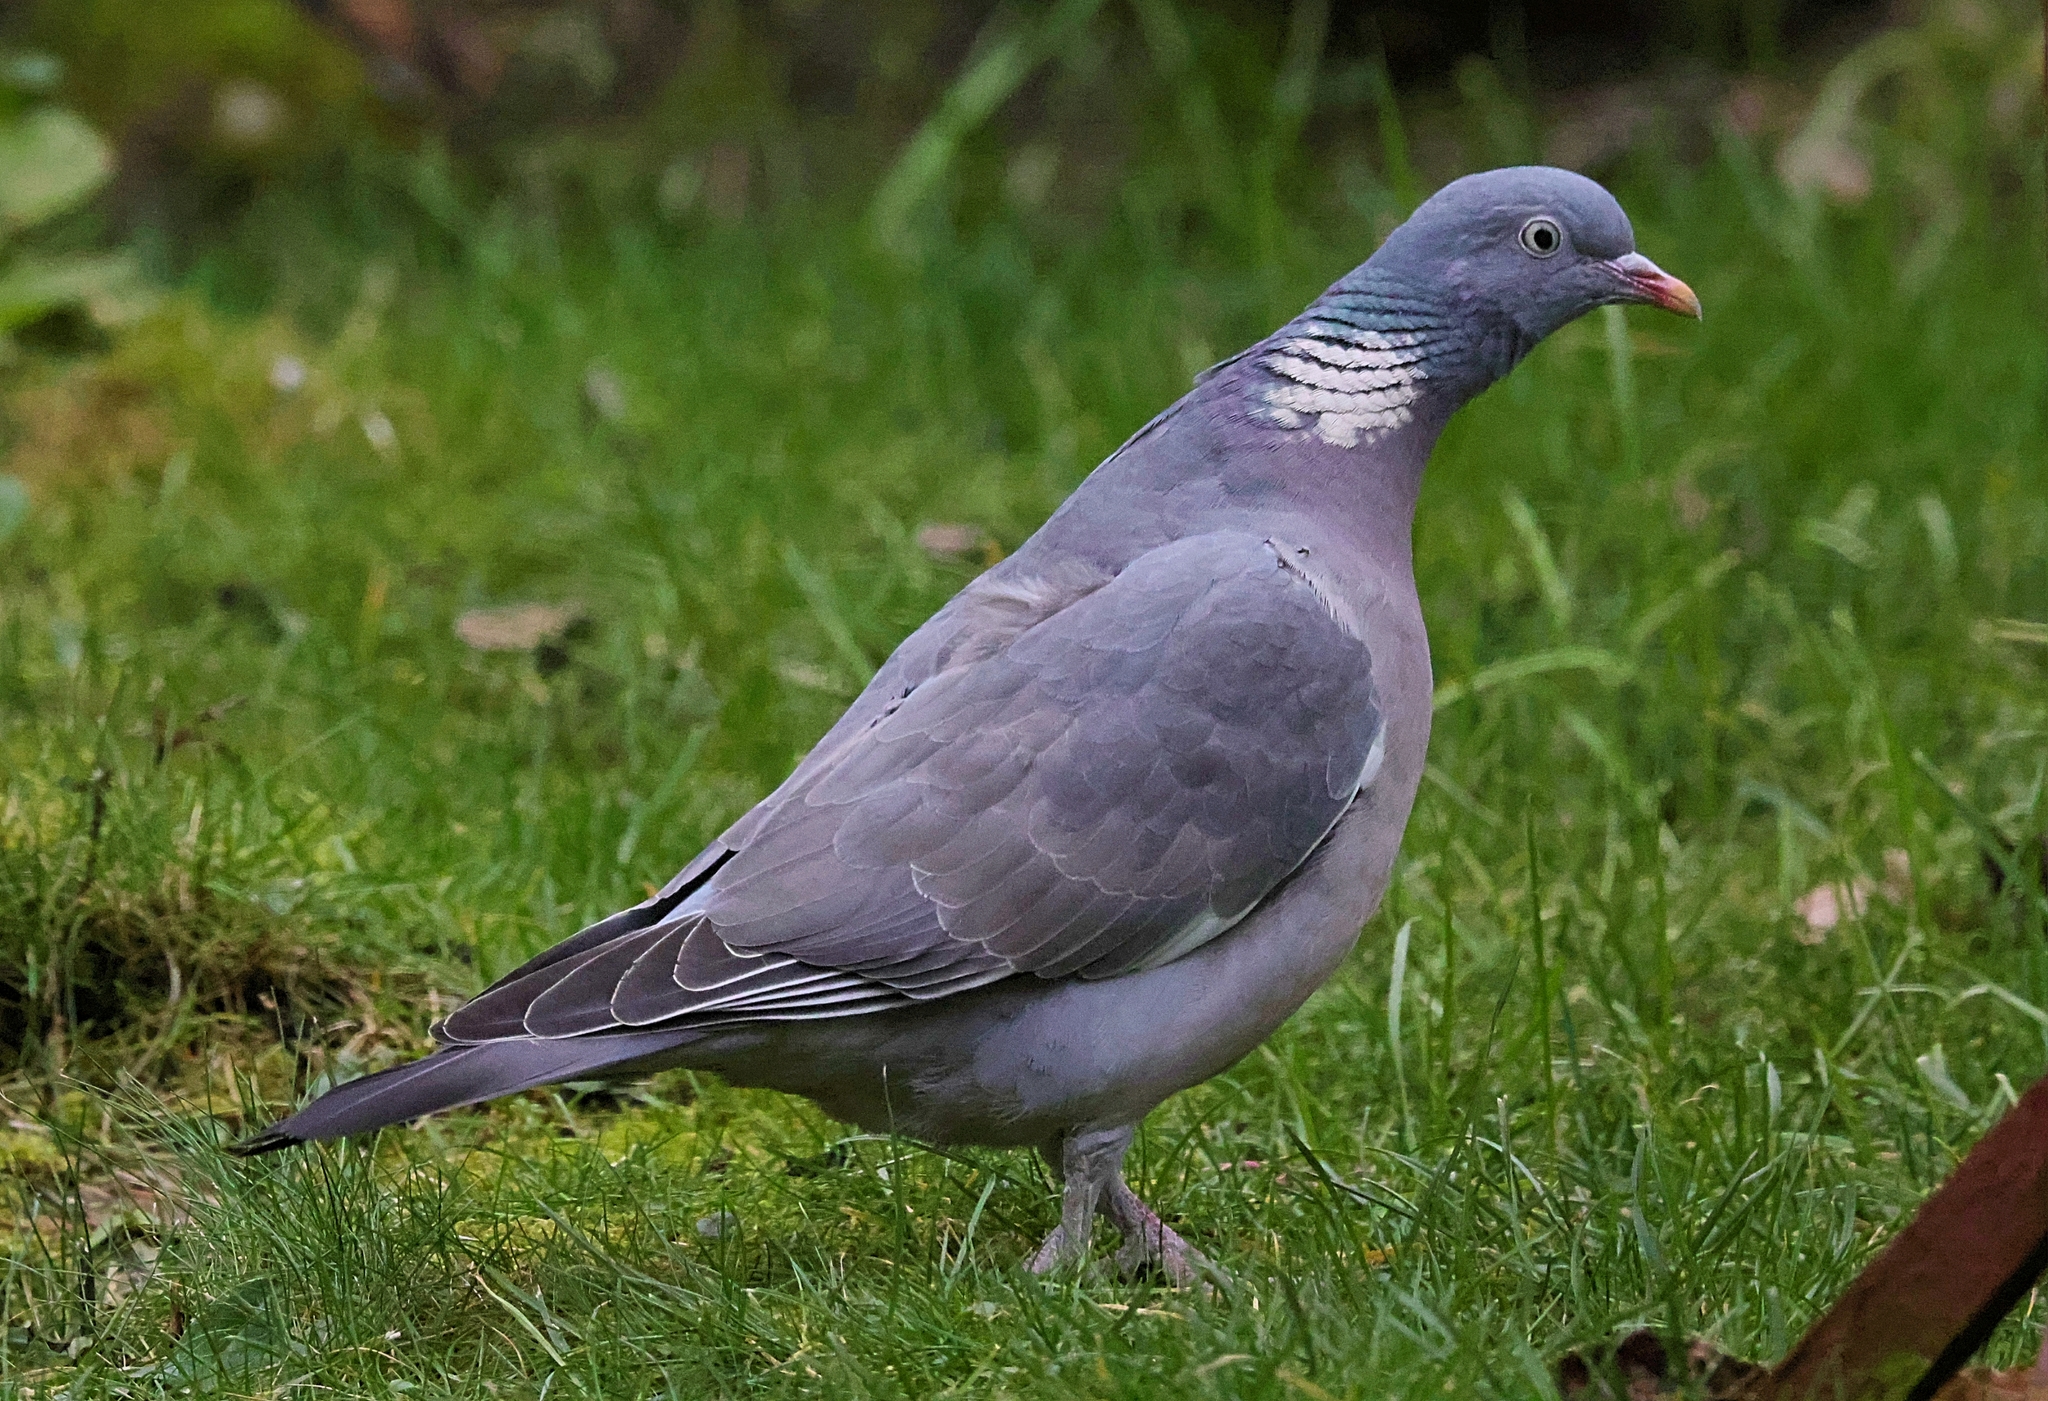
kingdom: Animalia
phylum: Chordata
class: Aves
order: Columbiformes
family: Columbidae
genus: Columba
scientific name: Columba palumbus
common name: Common wood pigeon
